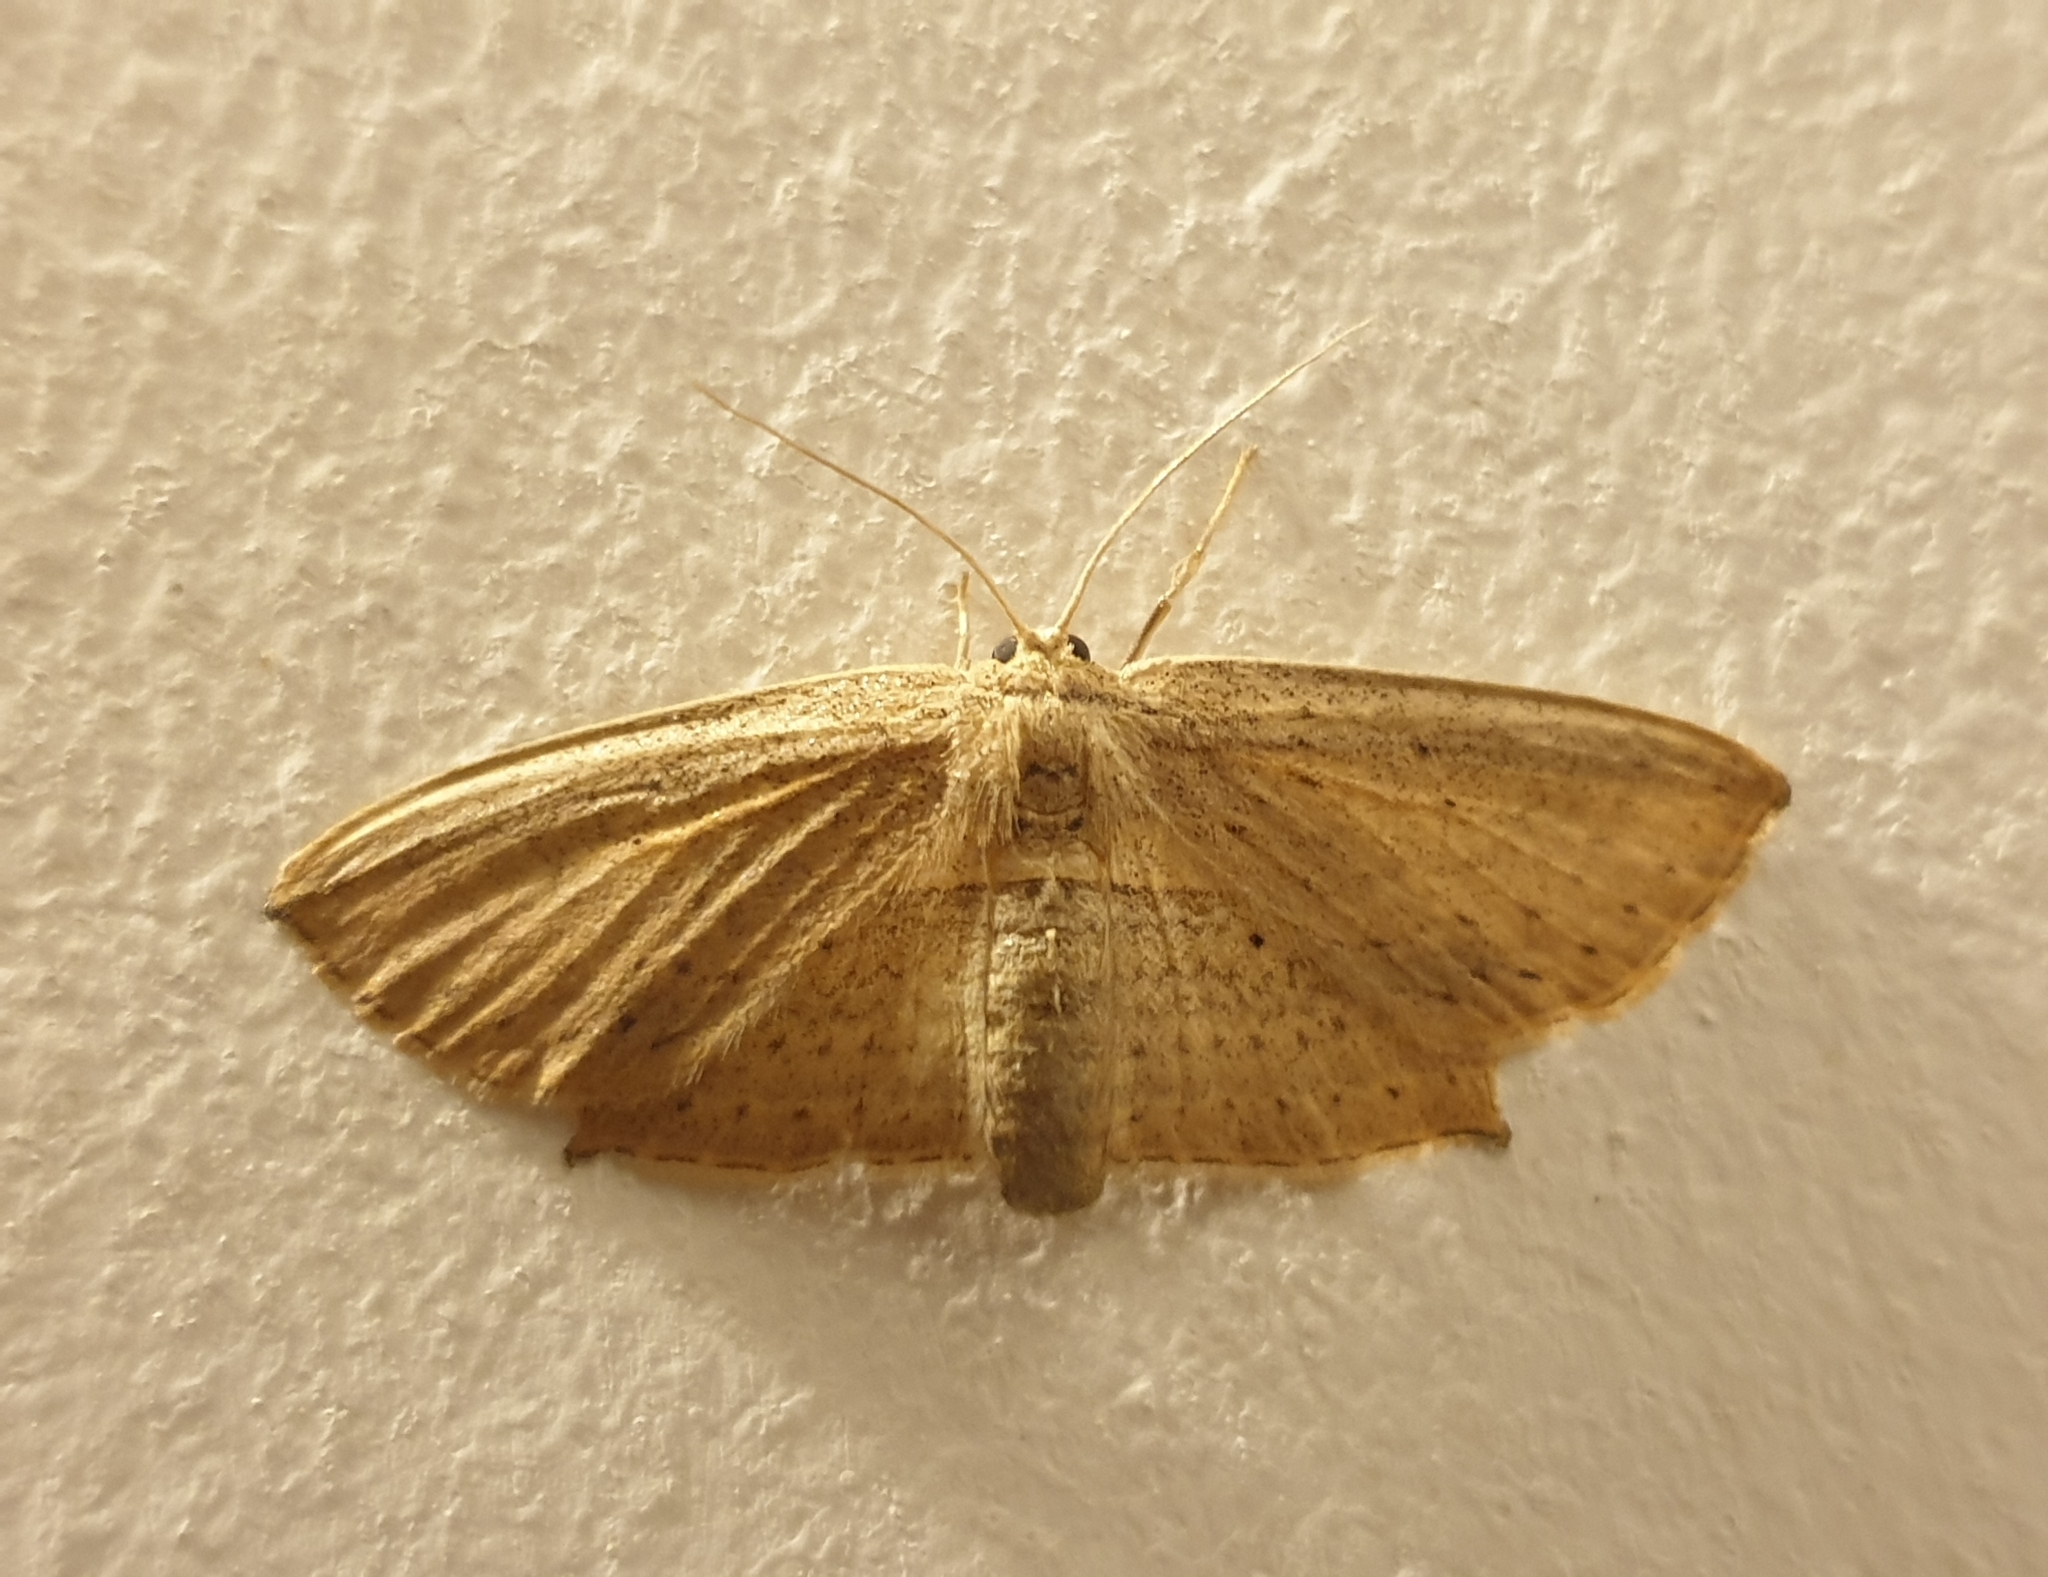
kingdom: Animalia
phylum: Arthropoda
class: Insecta
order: Lepidoptera
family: Drepanidae
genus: Phalacra
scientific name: Phalacra vidhisara
